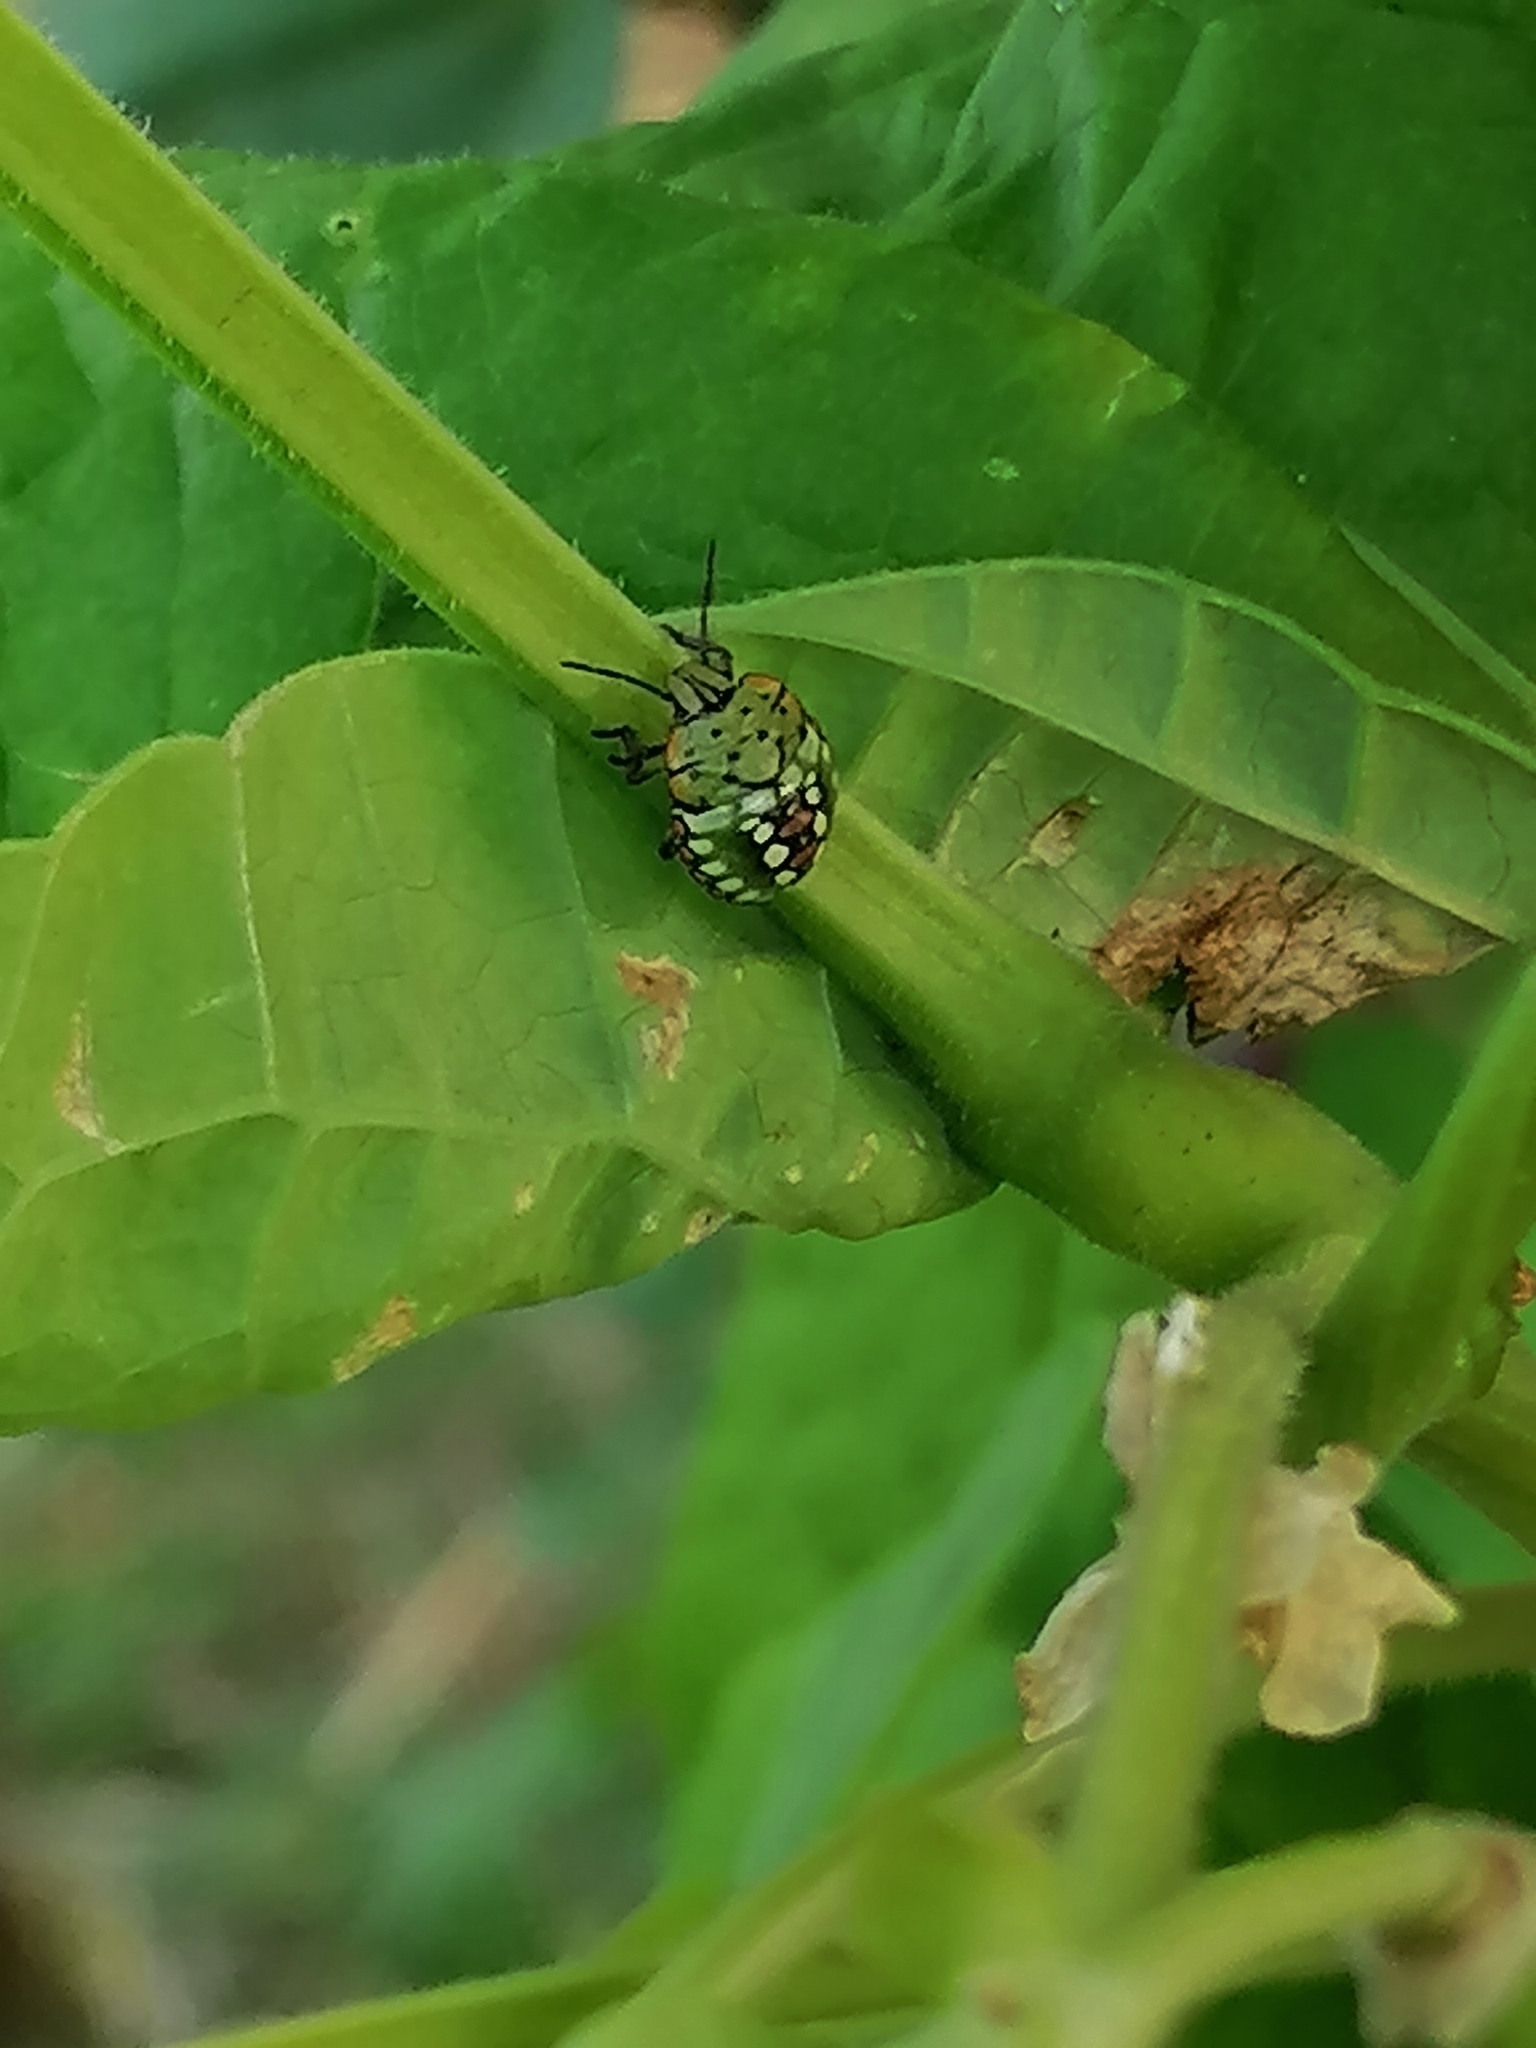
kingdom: Animalia
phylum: Arthropoda
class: Insecta
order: Hemiptera
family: Pentatomidae
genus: Nezara
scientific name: Nezara viridula
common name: Southern green stink bug
